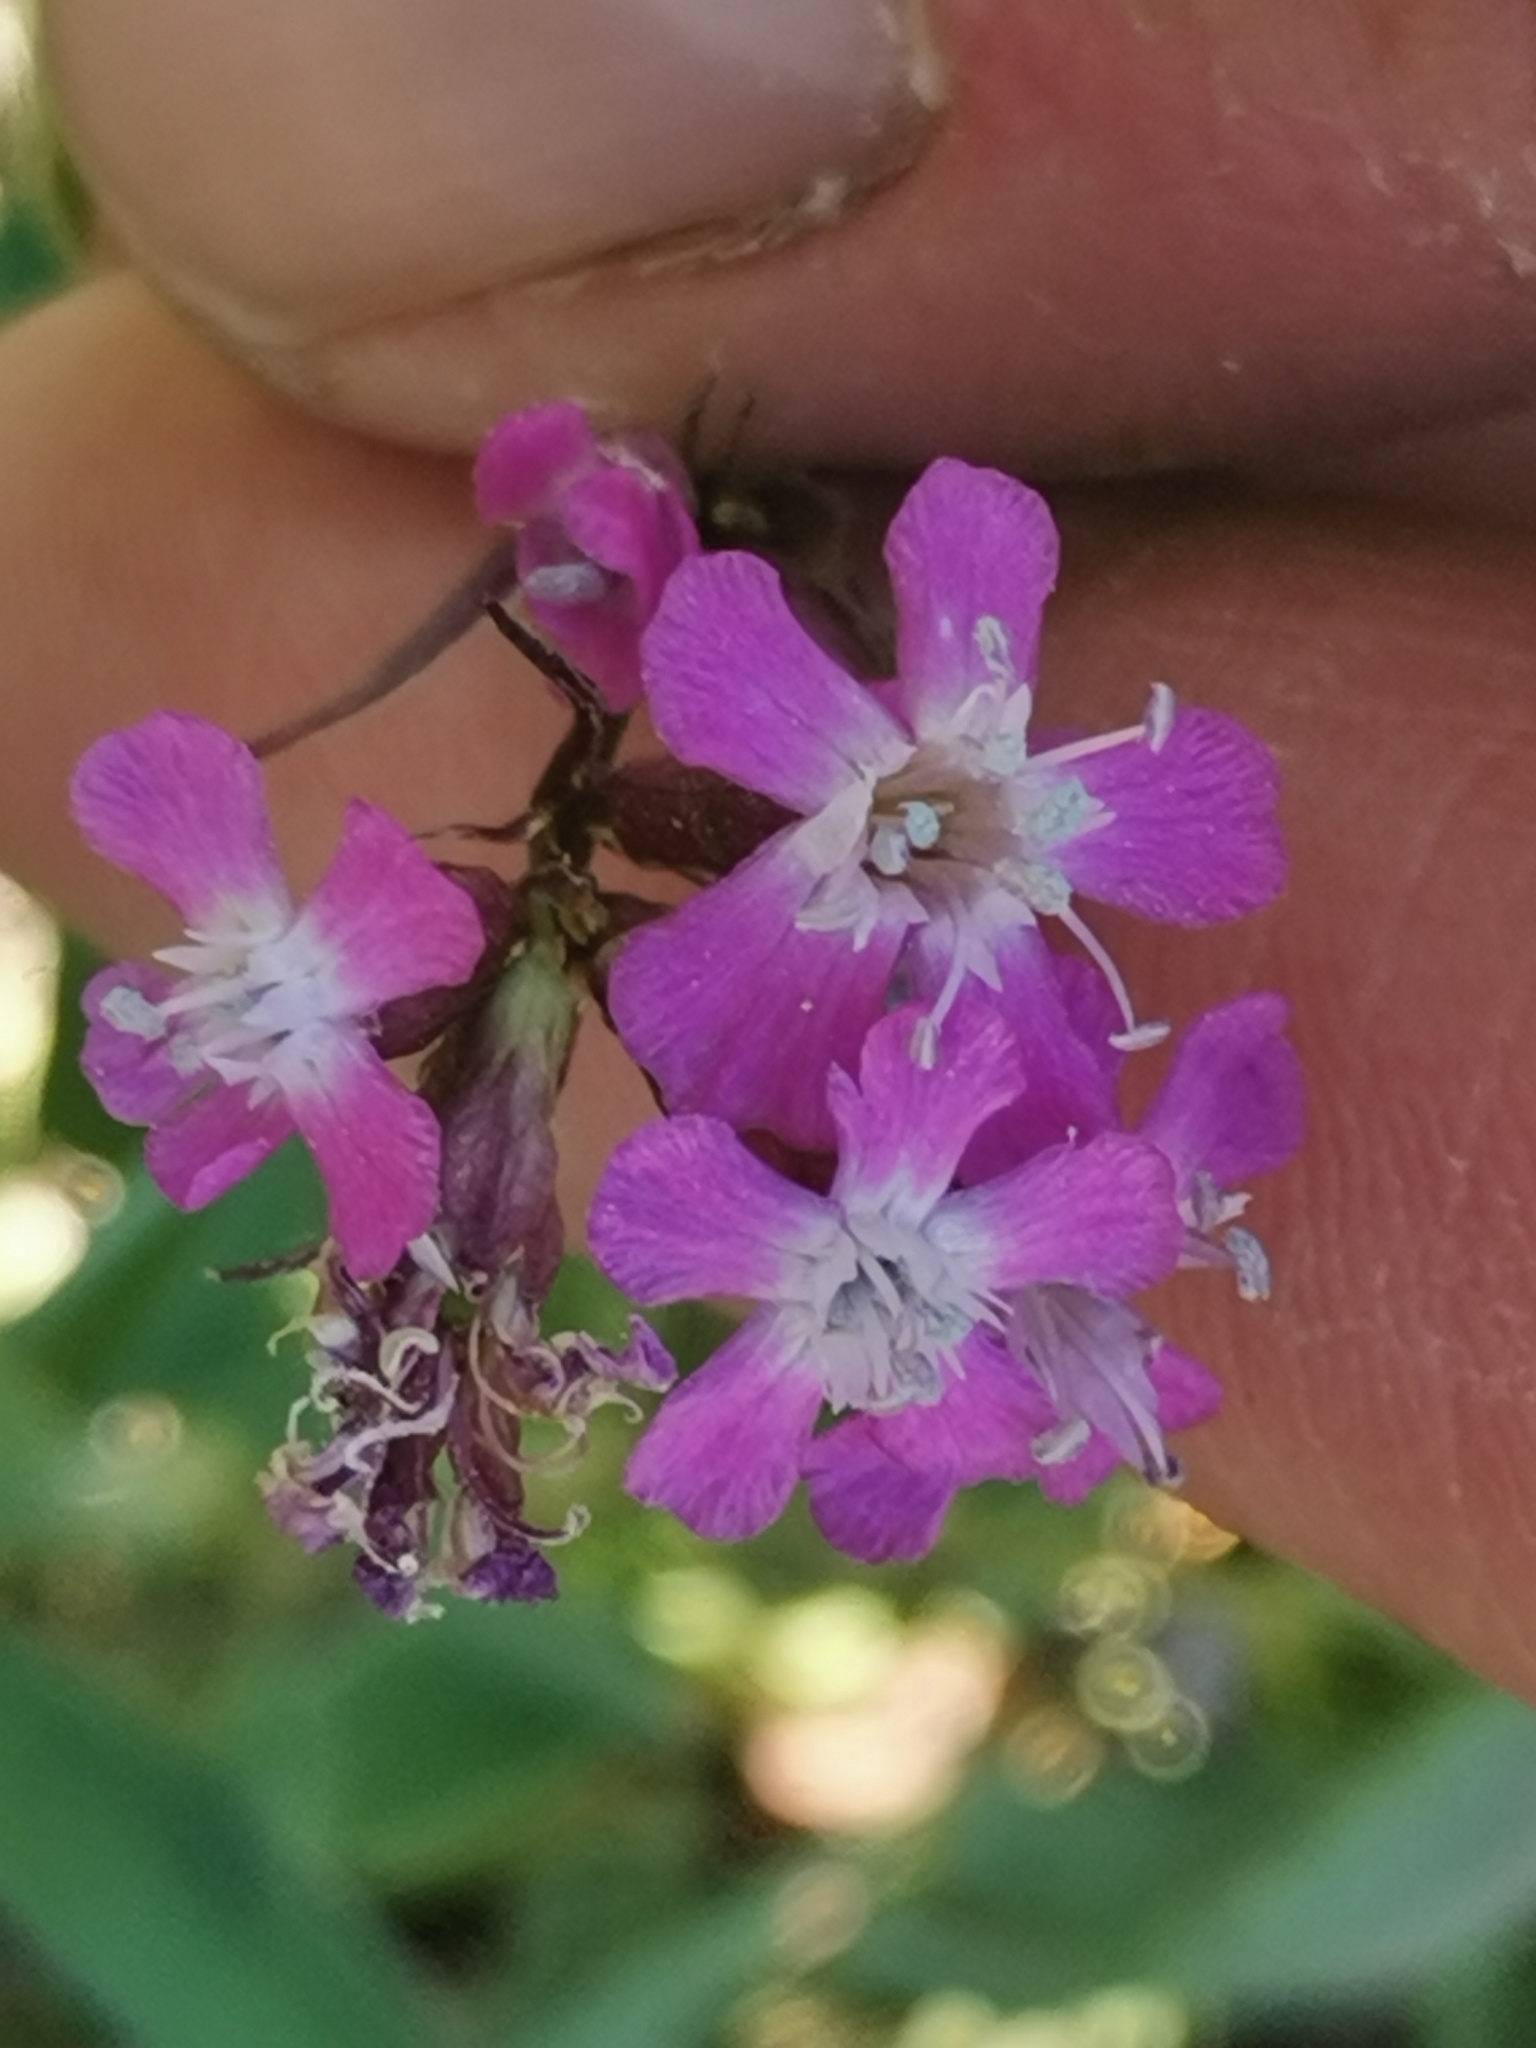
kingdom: Plantae
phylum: Tracheophyta
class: Magnoliopsida
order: Caryophyllales
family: Caryophyllaceae
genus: Viscaria
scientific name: Viscaria vulgaris
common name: Clammy campion
